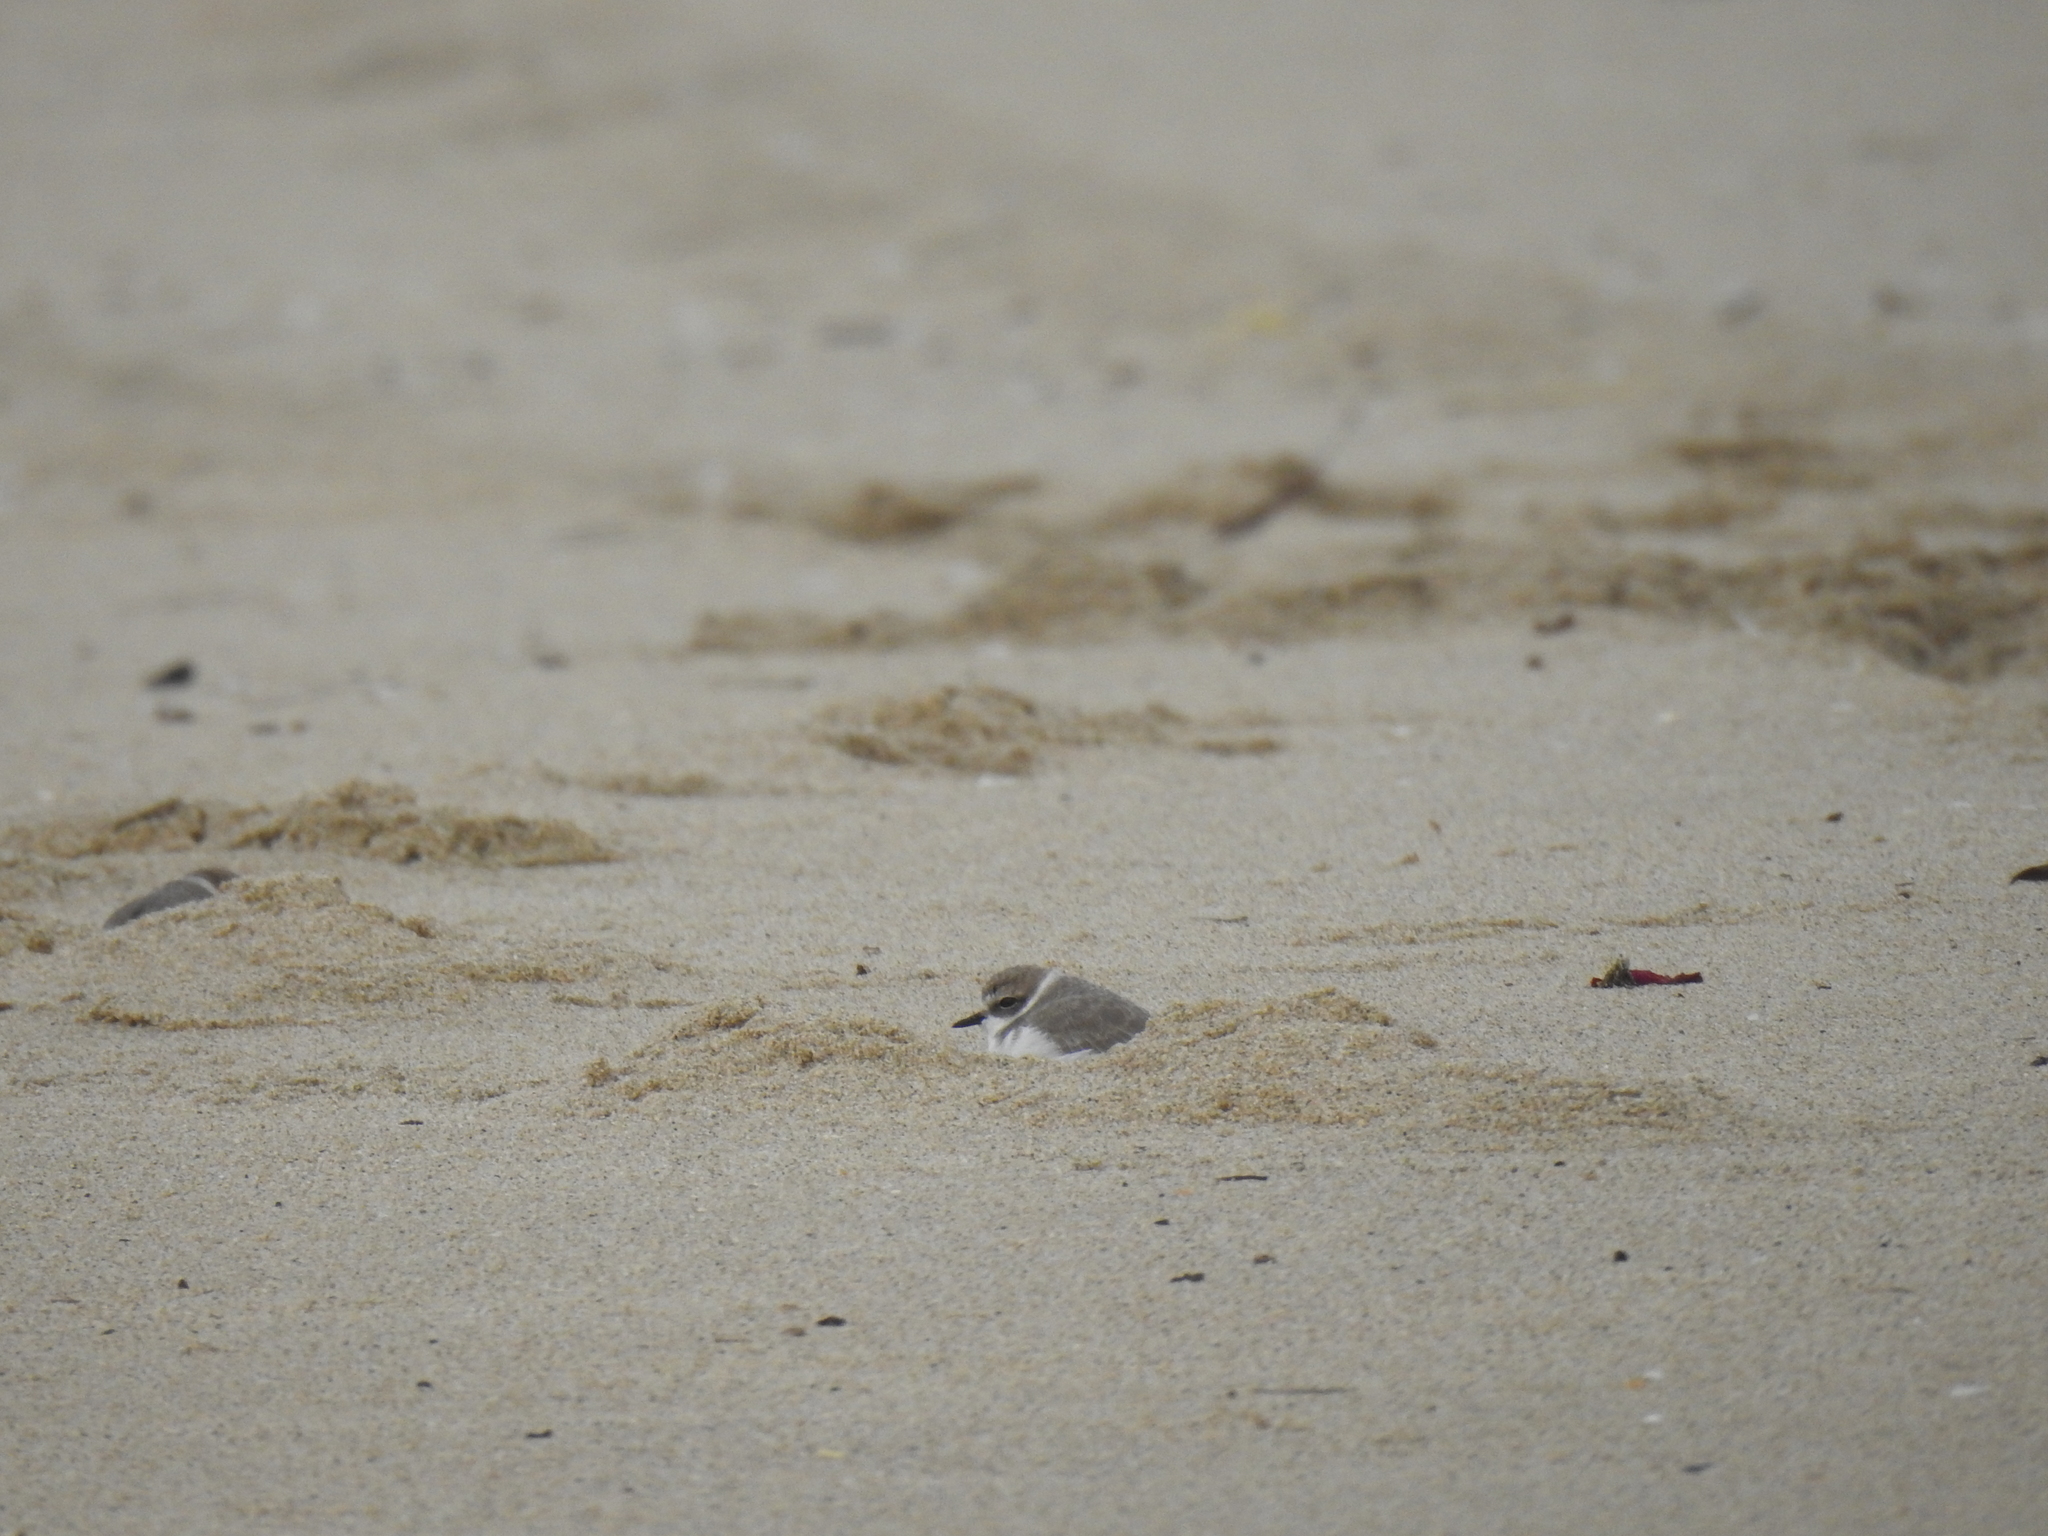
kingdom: Animalia
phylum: Chordata
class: Aves
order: Charadriiformes
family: Charadriidae
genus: Anarhynchus
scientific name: Anarhynchus
